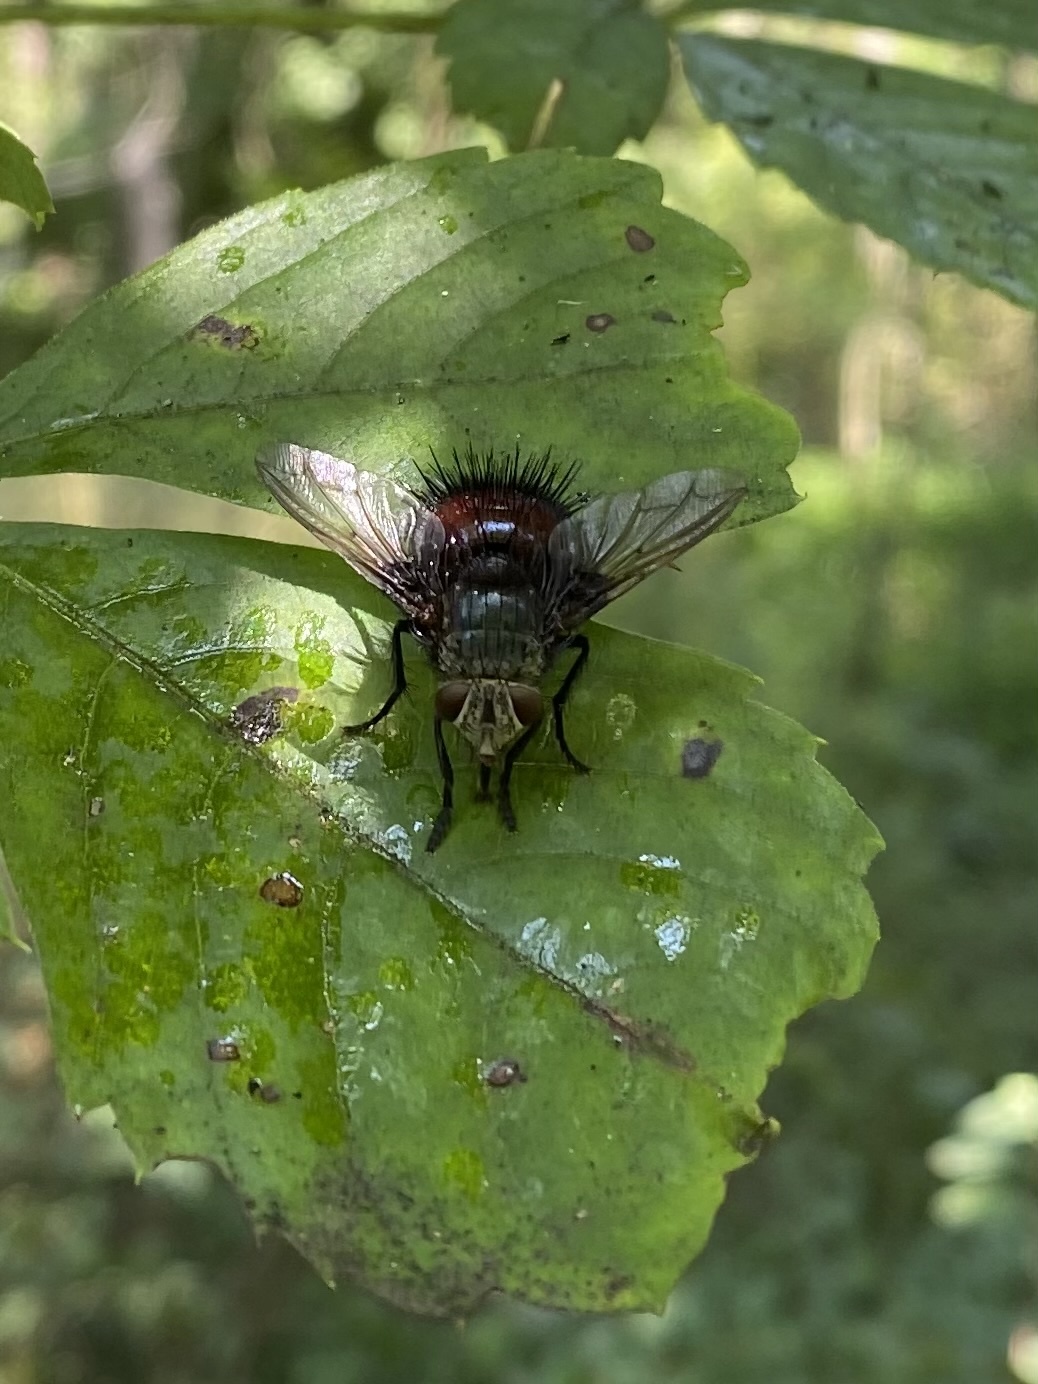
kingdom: Animalia
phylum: Arthropoda
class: Insecta
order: Diptera
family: Tachinidae
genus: Juriniopsis
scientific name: Juriniopsis adusta
